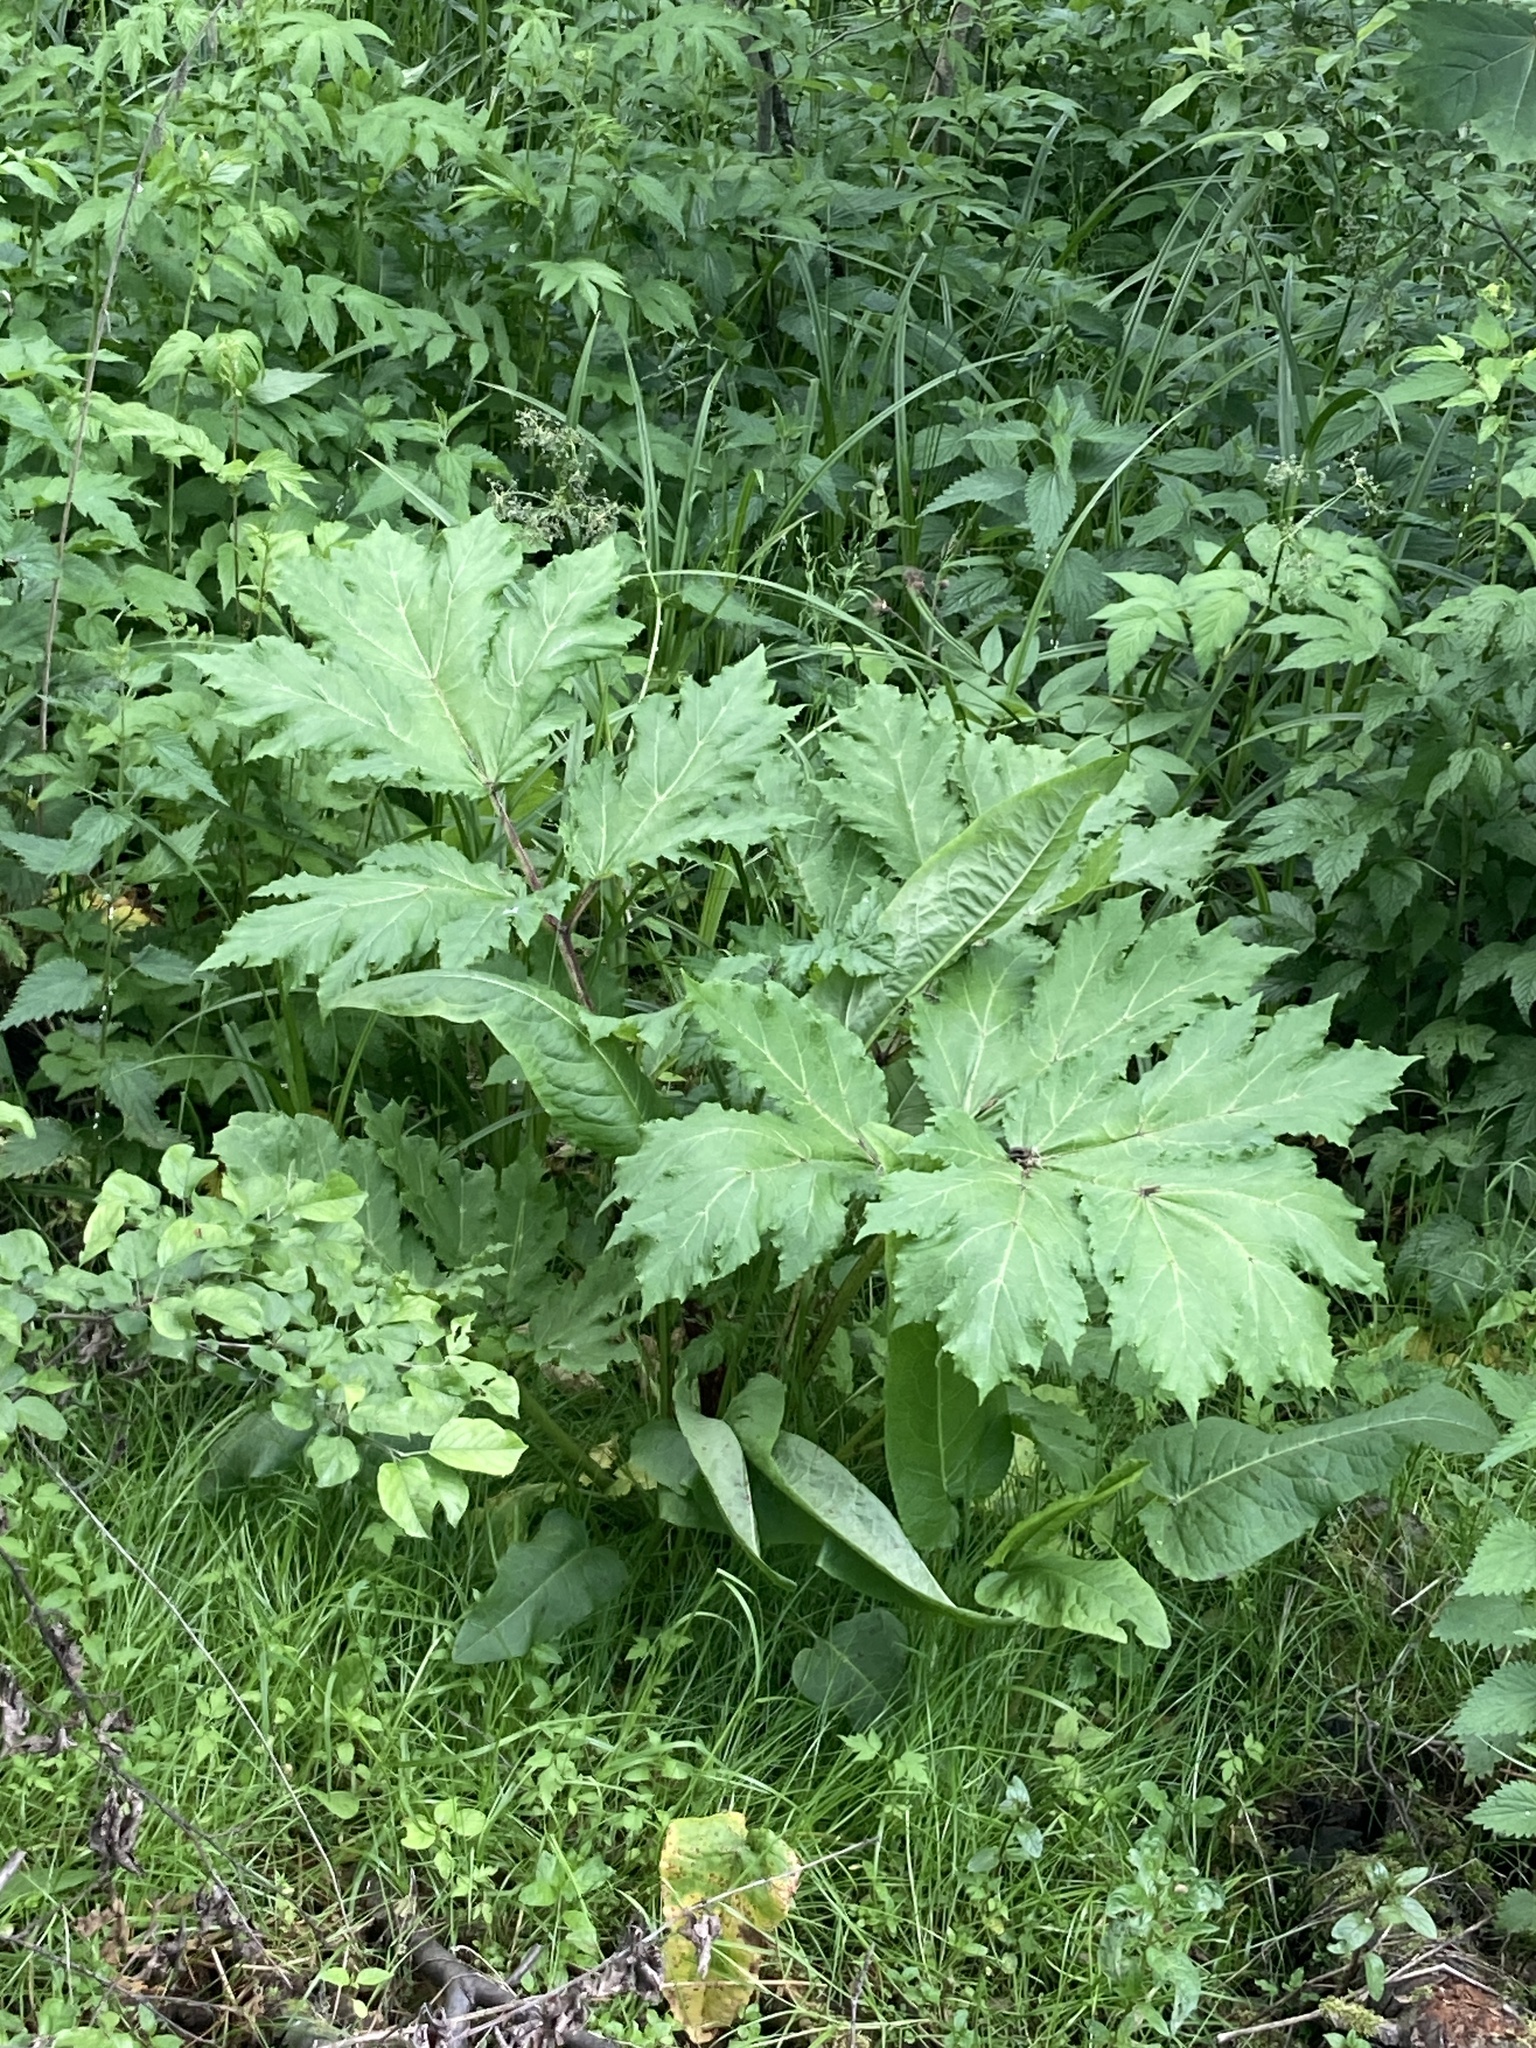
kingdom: Plantae
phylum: Tracheophyta
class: Magnoliopsida
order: Apiales
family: Apiaceae
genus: Heracleum
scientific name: Heracleum sosnowskyi
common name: Sosnowsky's hogweed
